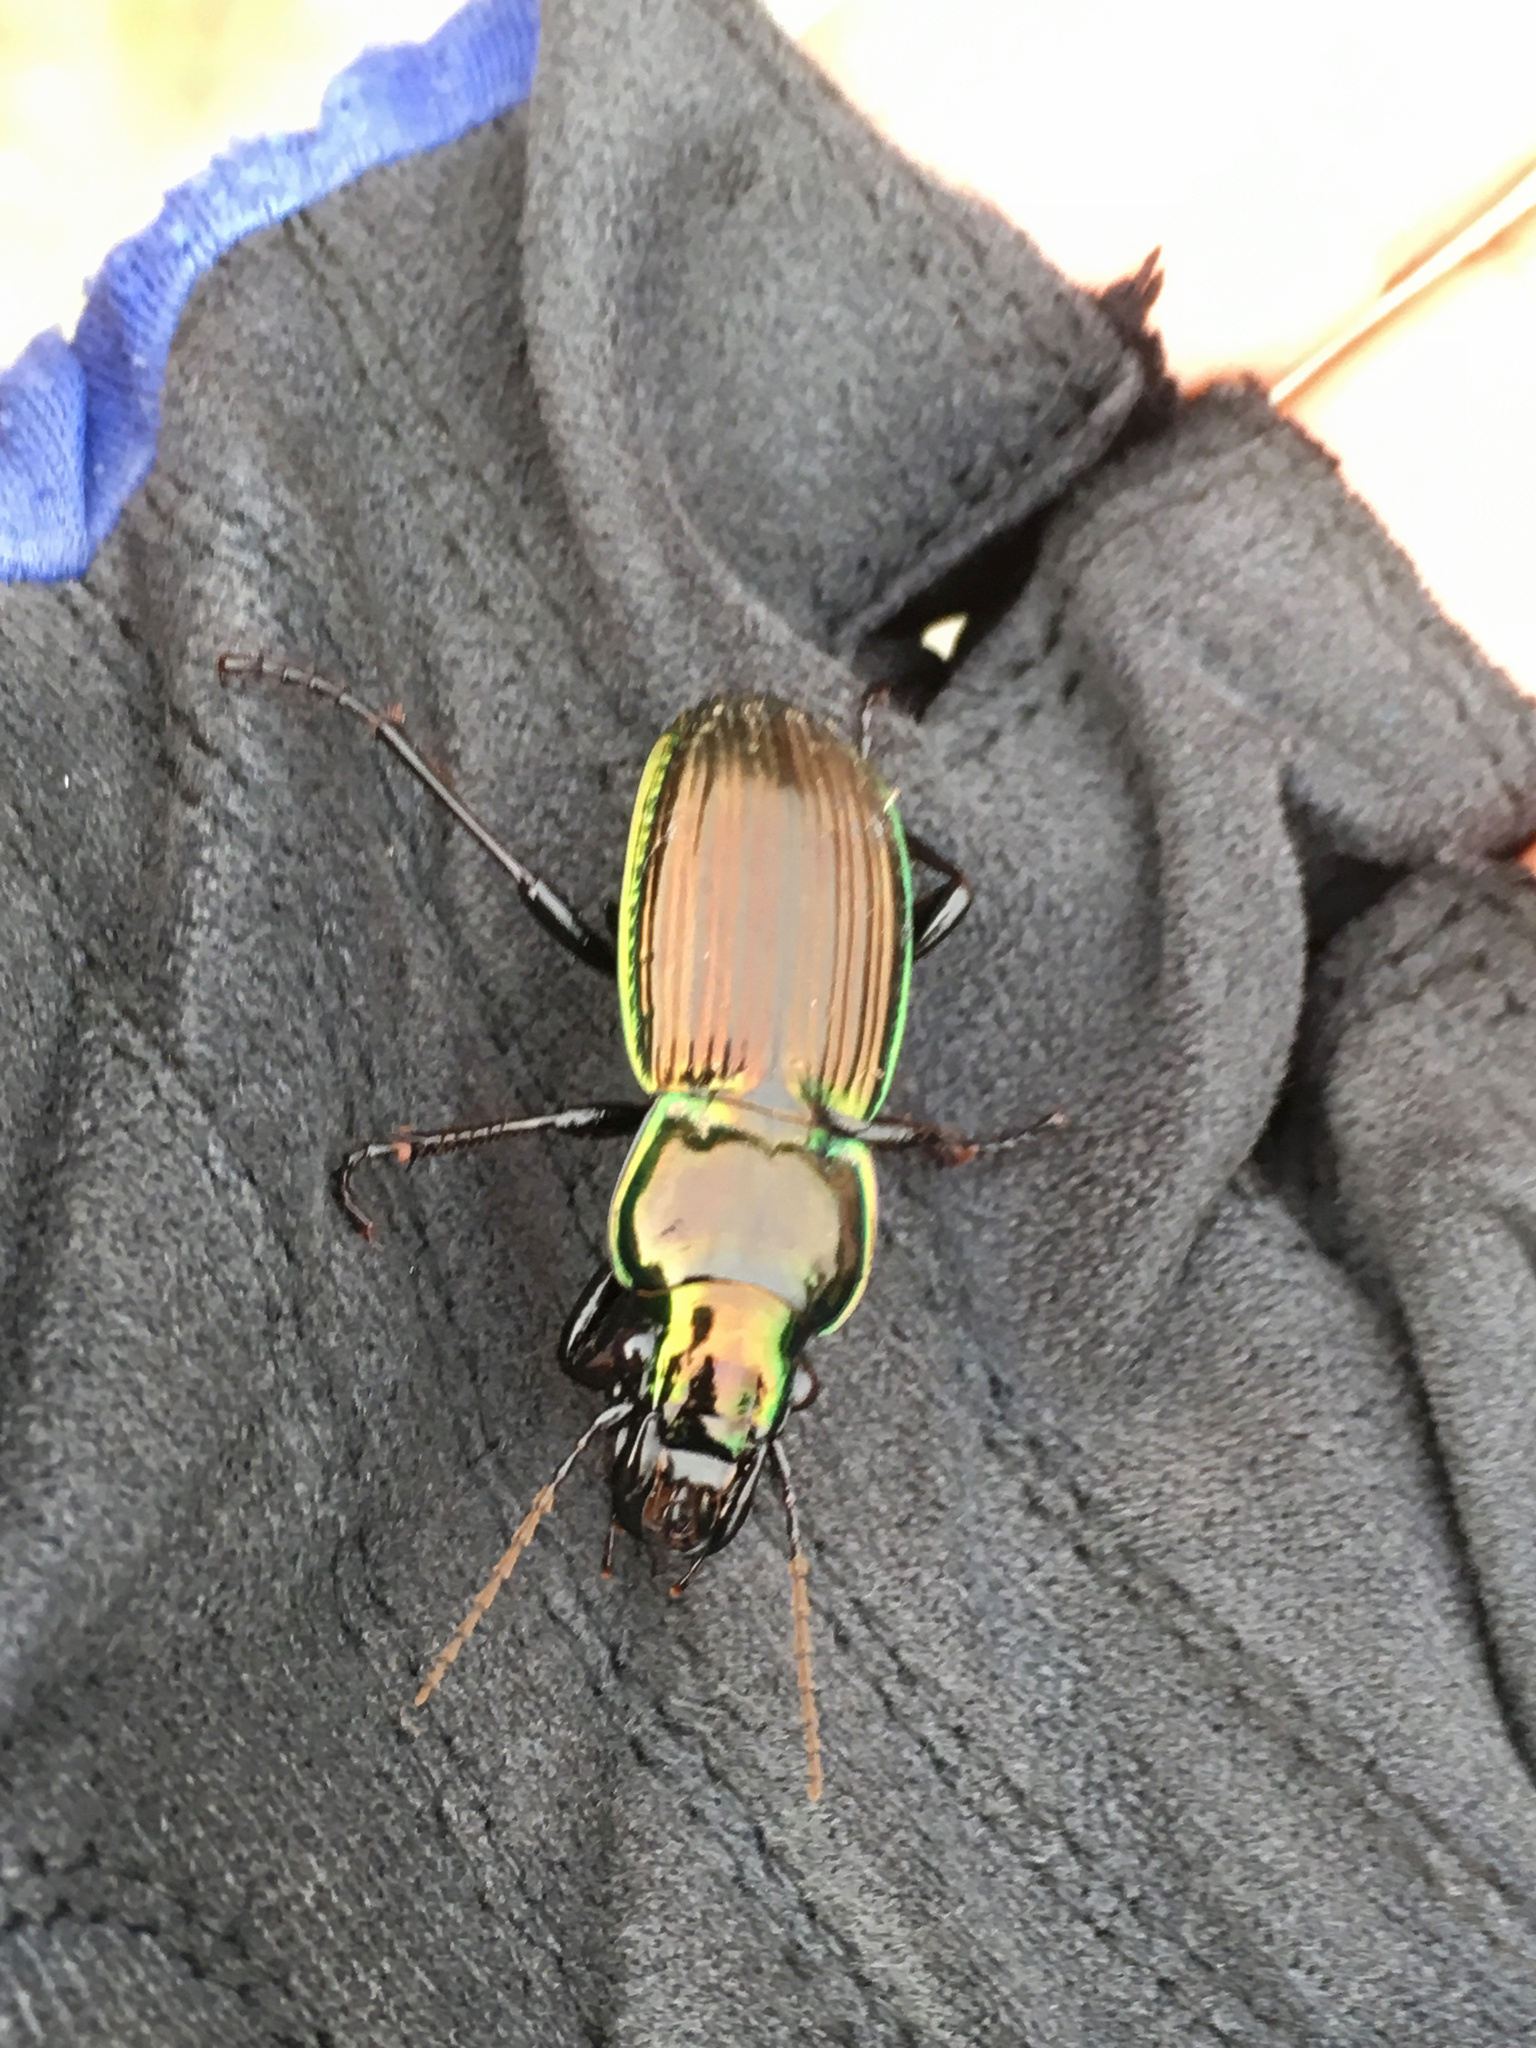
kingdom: Animalia
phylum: Arthropoda
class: Insecta
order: Coleoptera
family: Carabidae
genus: Megadromus
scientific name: Megadromus antarcticus
